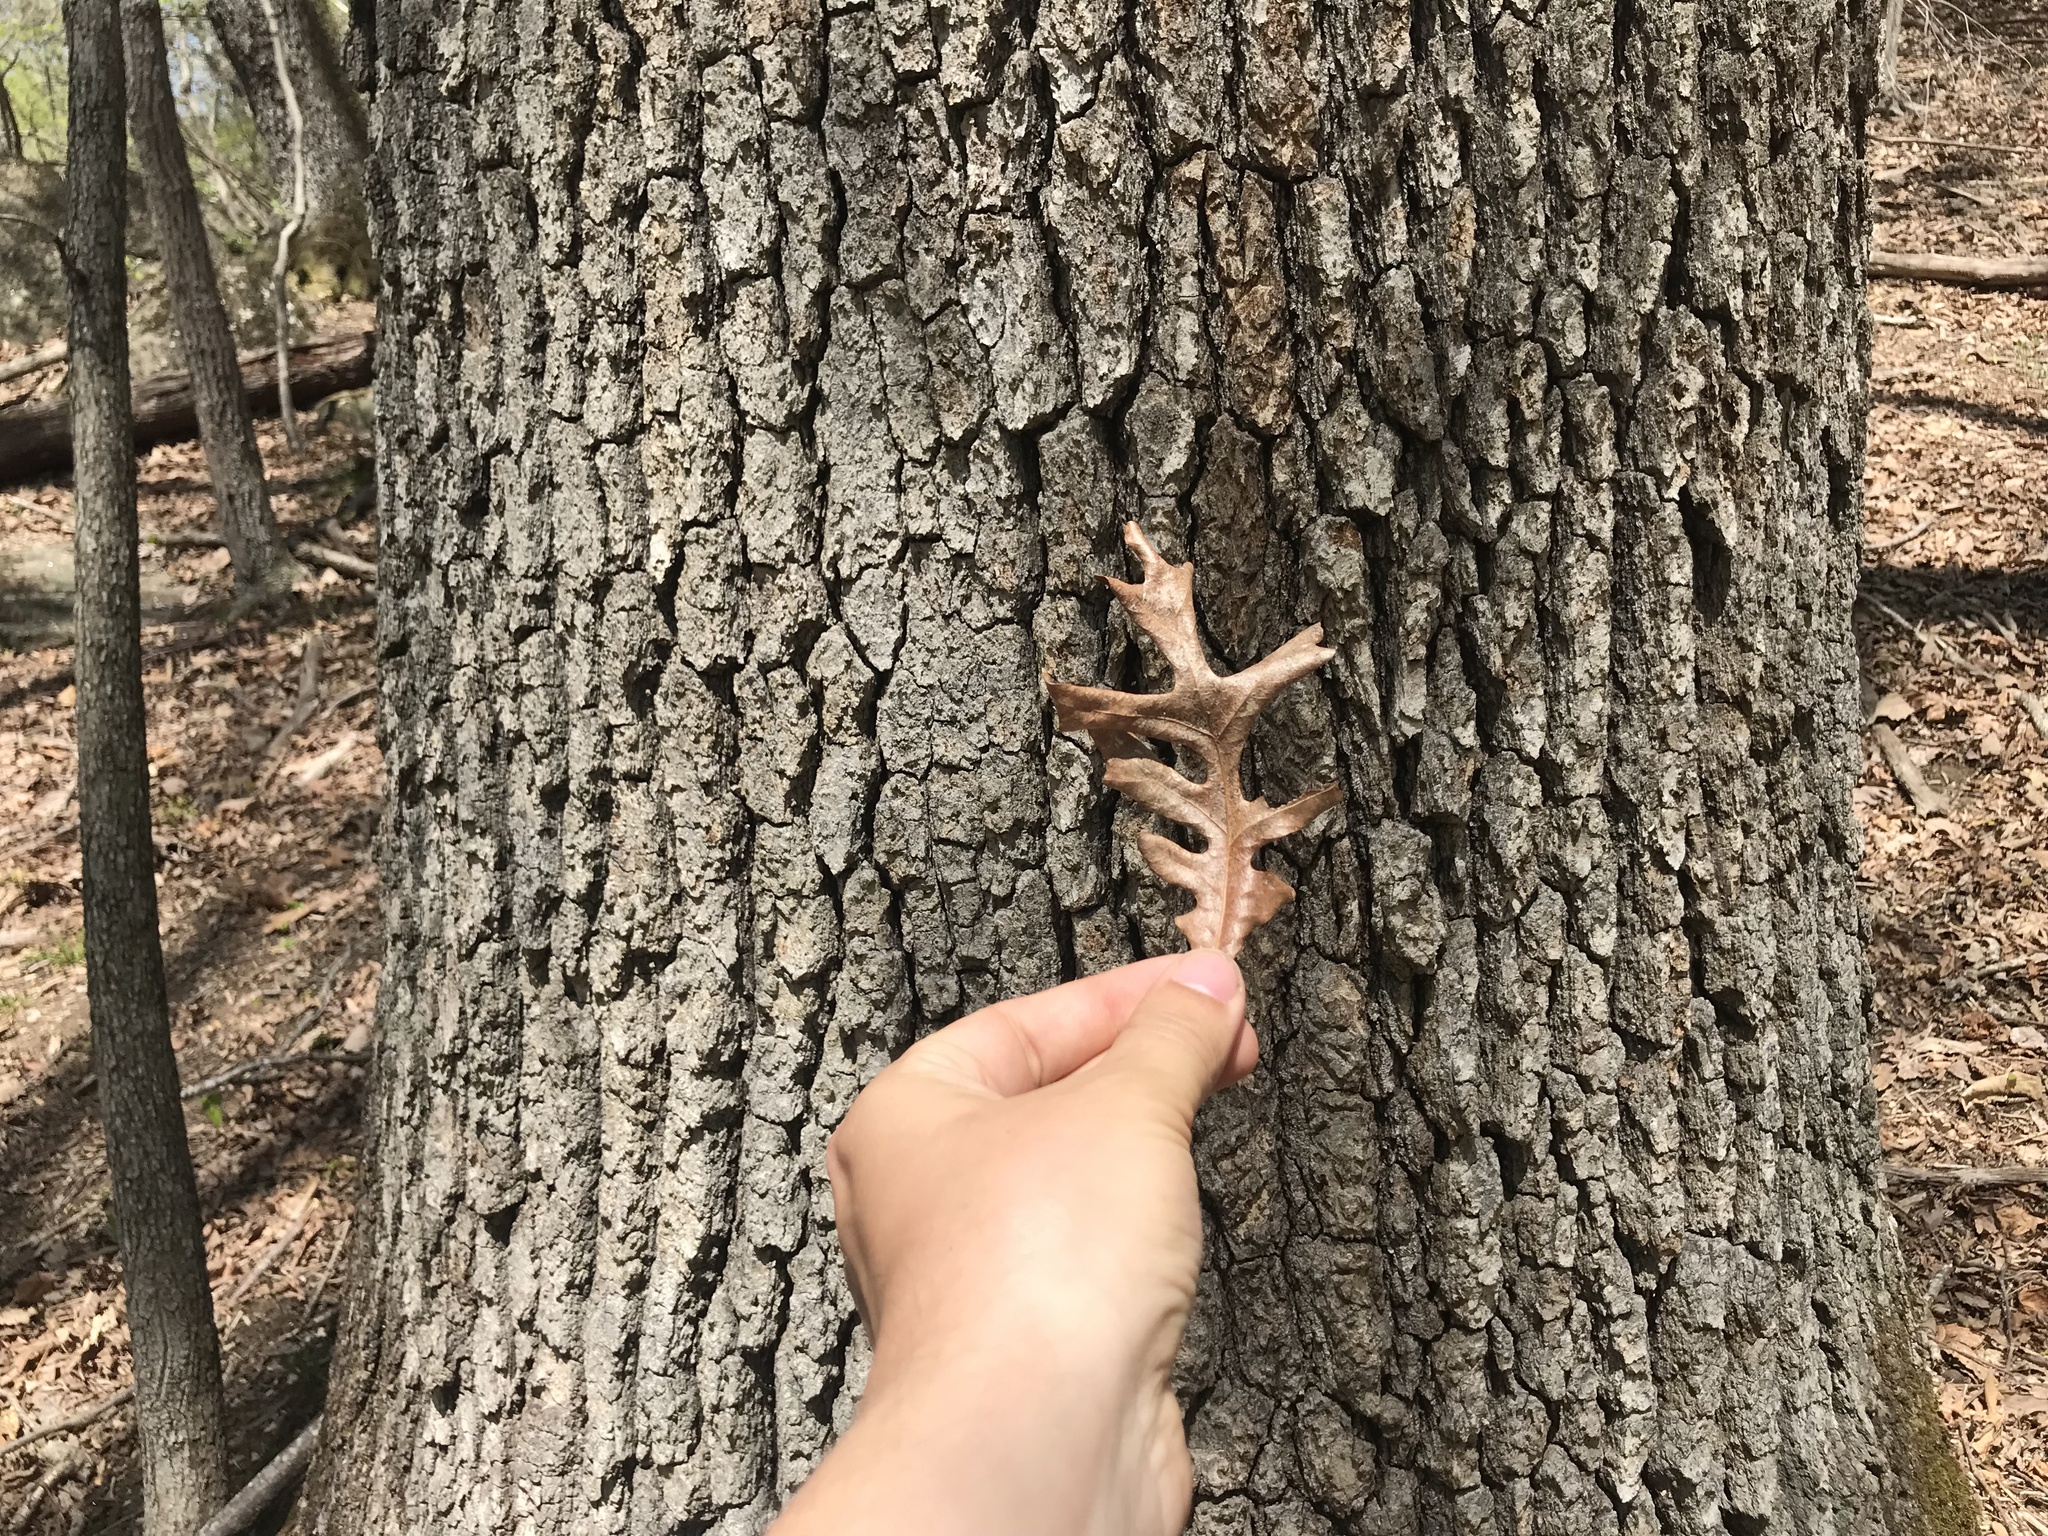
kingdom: Plantae
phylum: Tracheophyta
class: Magnoliopsida
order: Fagales
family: Fagaceae
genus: Quercus
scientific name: Quercus alba
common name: White oak
